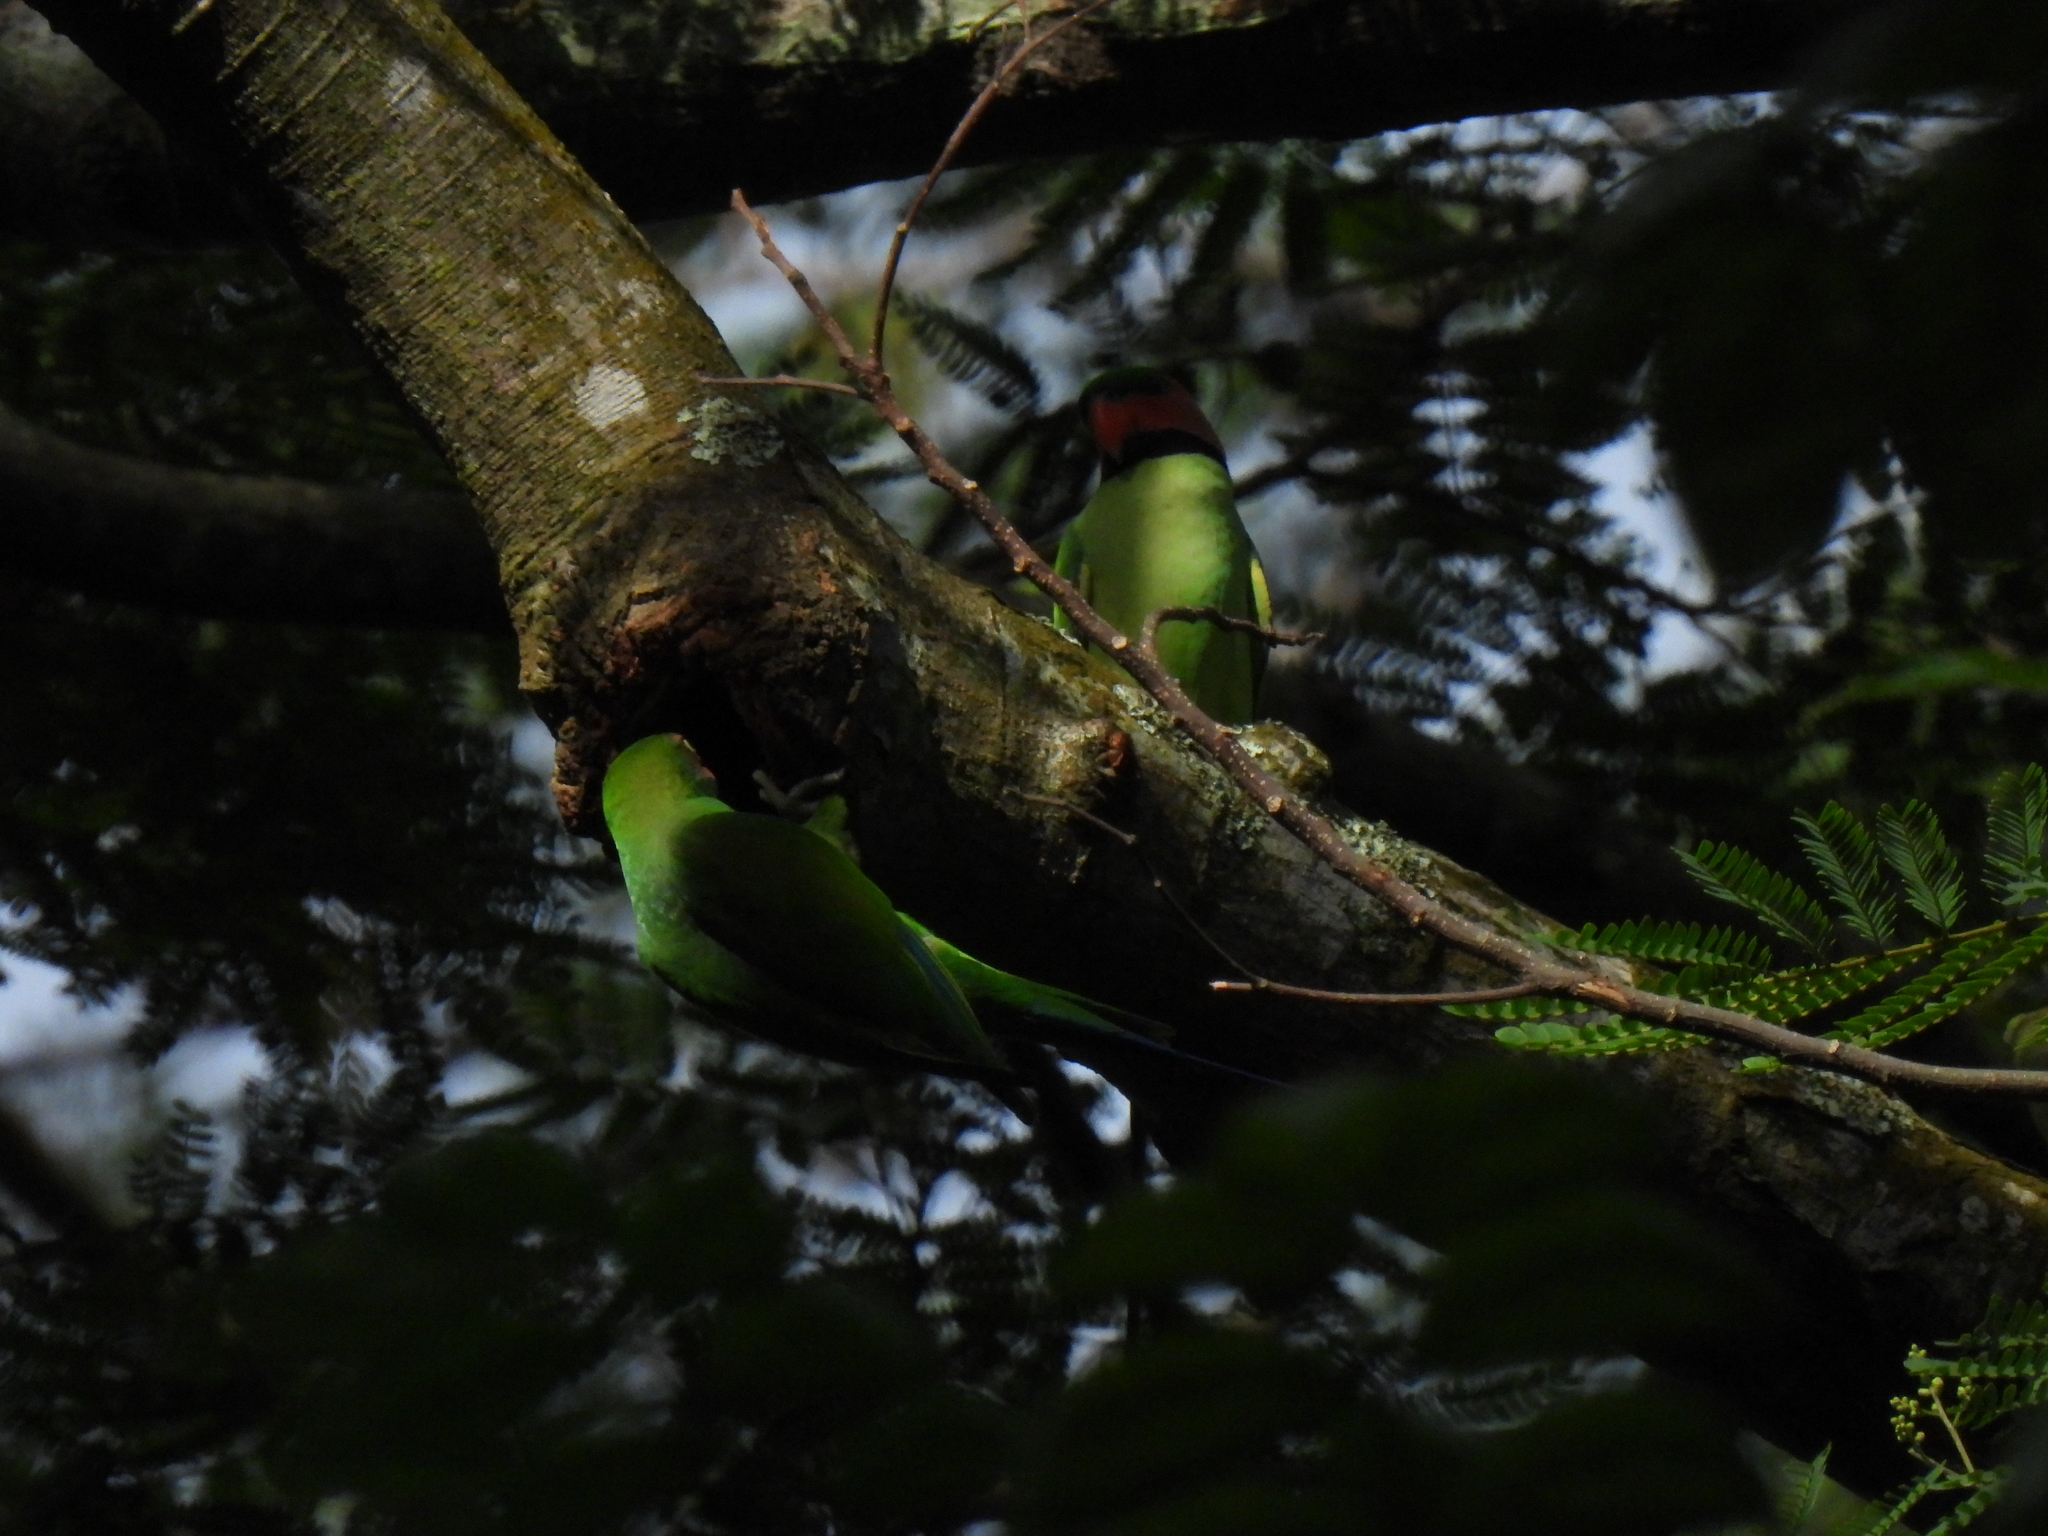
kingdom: Animalia
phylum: Chordata
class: Aves
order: Psittaciformes
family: Psittacidae
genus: Psittacula
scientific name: Psittacula longicauda
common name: Long-tailed parakeet
